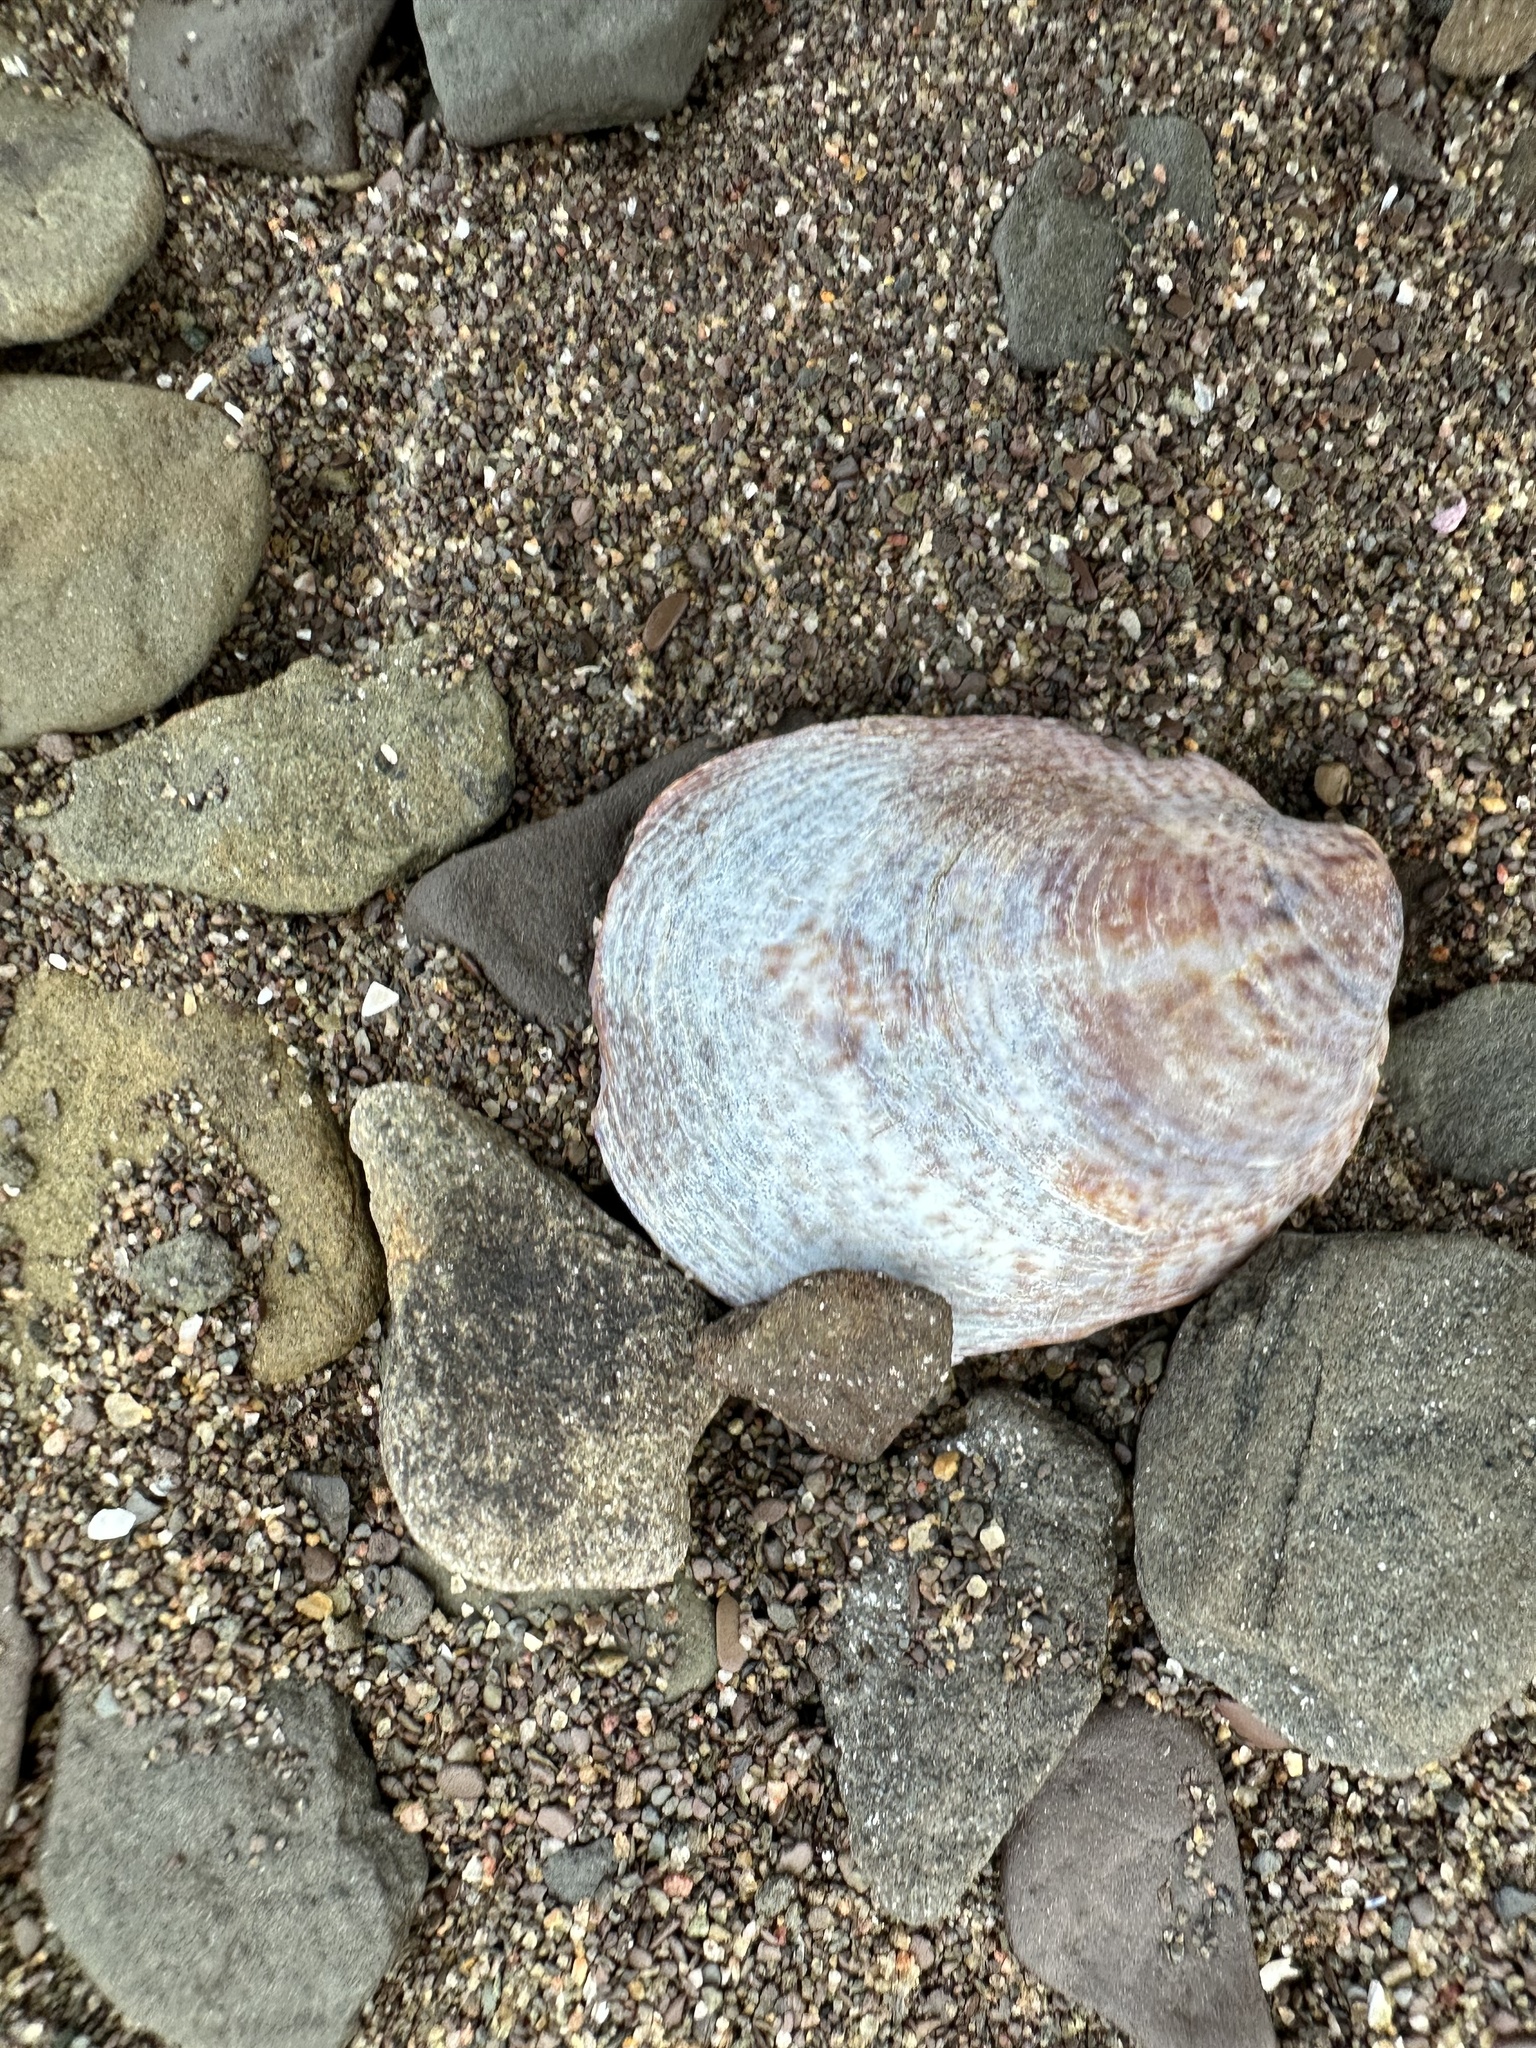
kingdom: Animalia
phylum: Mollusca
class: Gastropoda
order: Littorinimorpha
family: Calyptraeidae
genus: Crepidula
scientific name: Crepidula fornicata
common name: Slipper limpet
